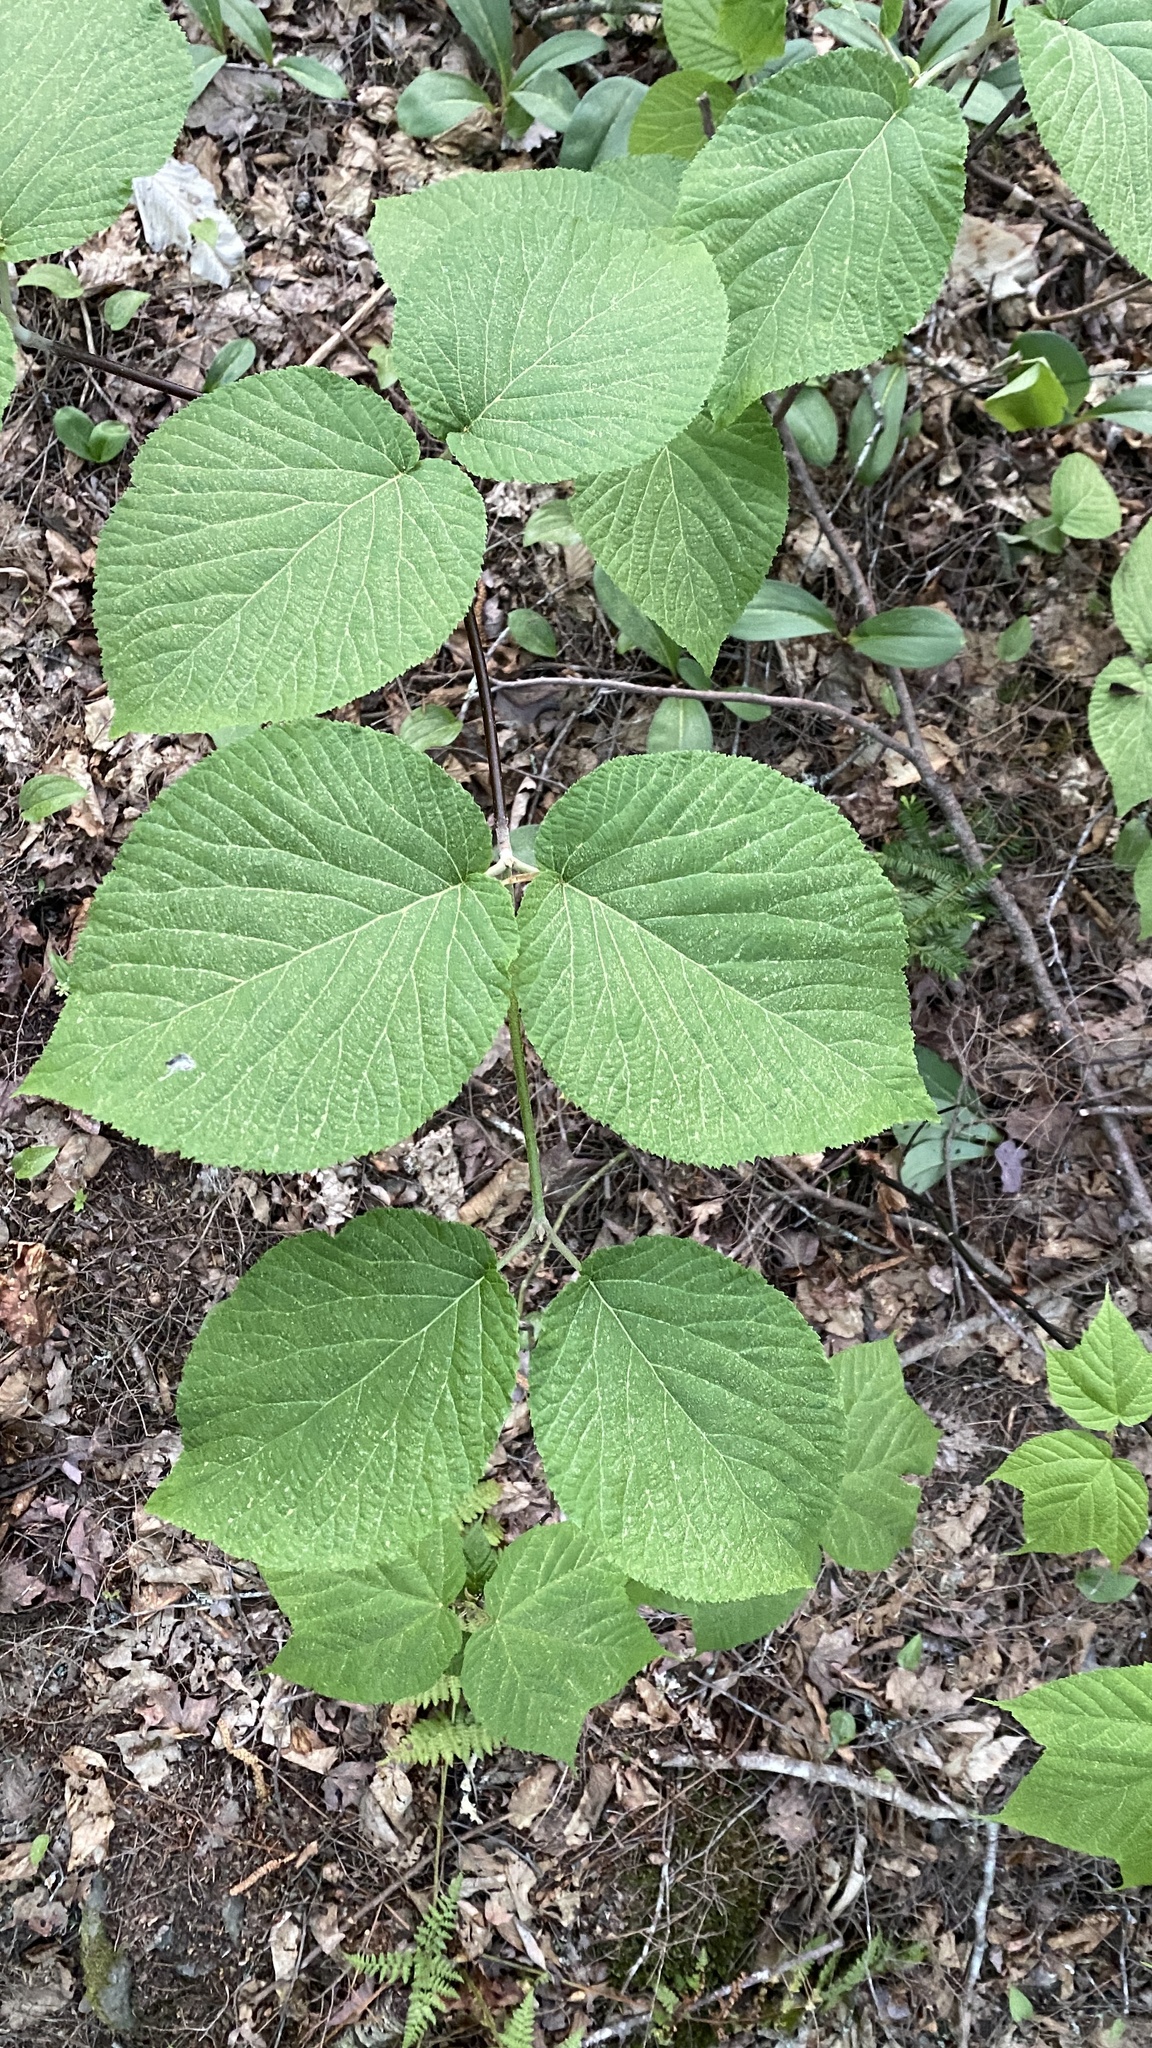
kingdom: Plantae
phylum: Tracheophyta
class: Magnoliopsida
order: Dipsacales
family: Viburnaceae
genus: Viburnum
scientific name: Viburnum lantanoides
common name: Hobblebush
